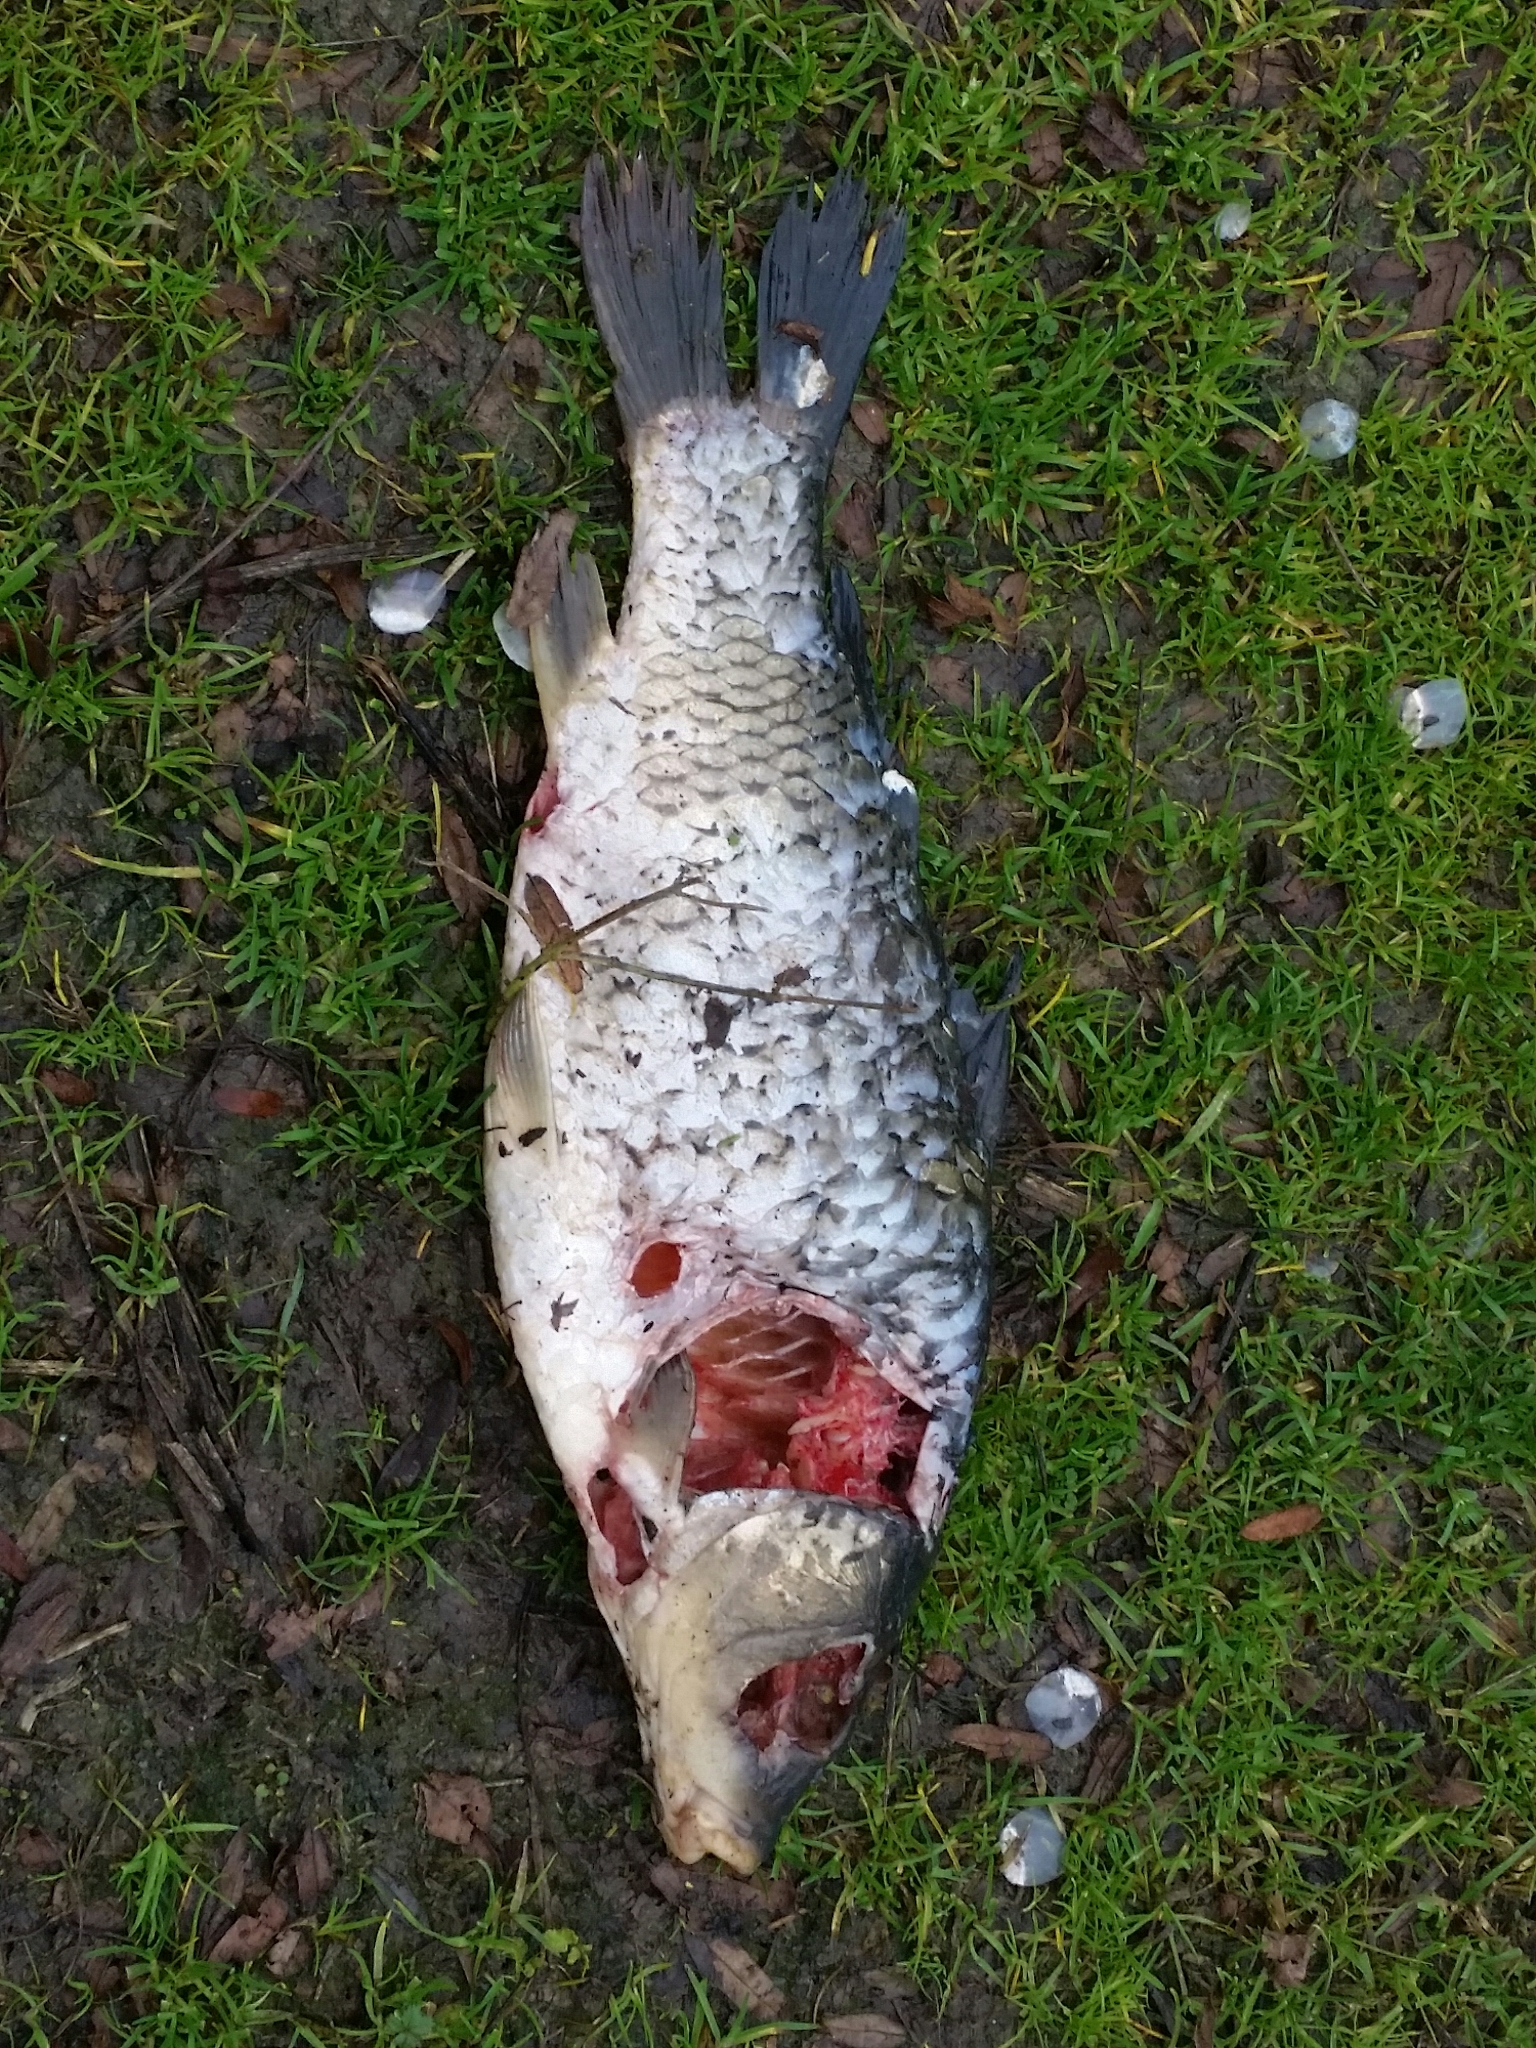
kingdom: Animalia
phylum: Chordata
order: Cypriniformes
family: Cyprinidae
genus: Cyprinus
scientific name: Cyprinus carpio
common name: Common carp
